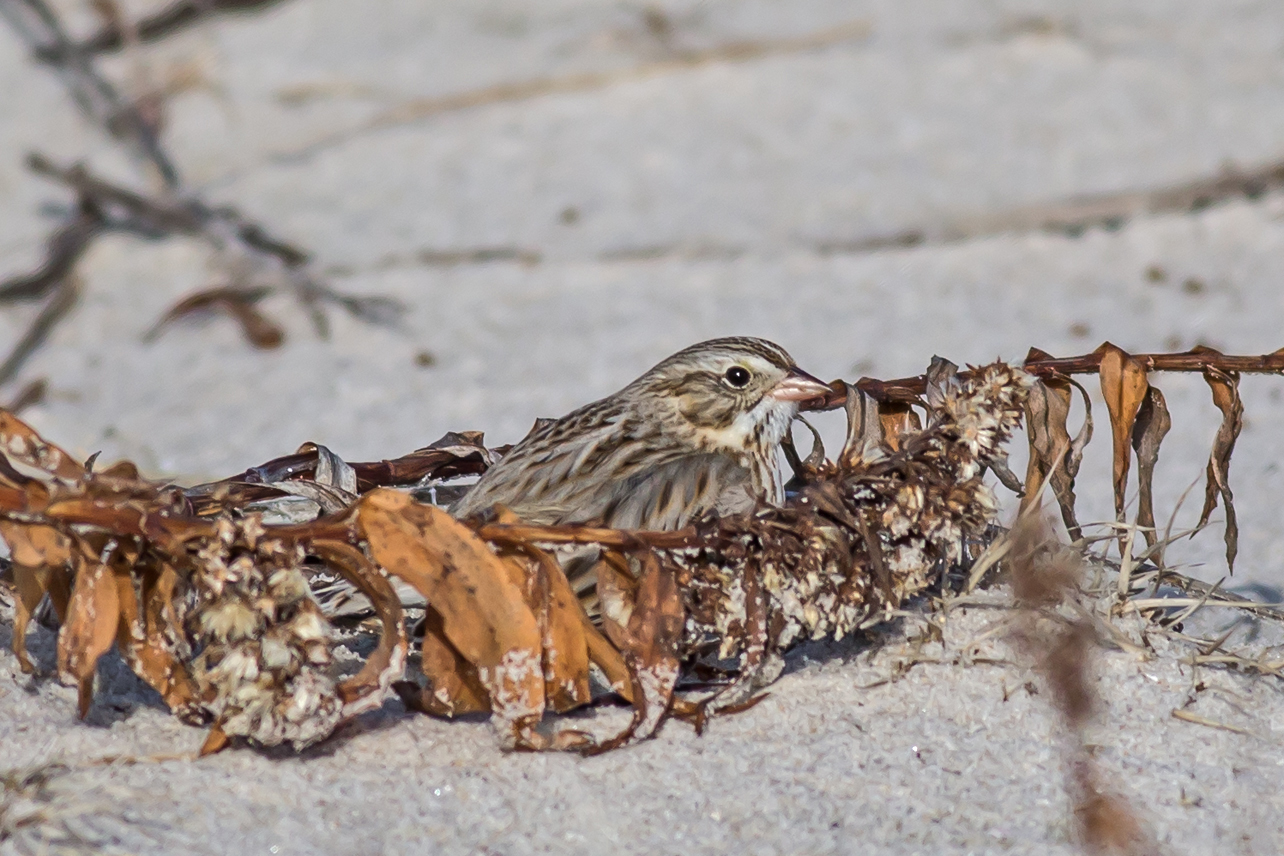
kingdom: Animalia
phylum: Chordata
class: Aves
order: Passeriformes
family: Passerellidae
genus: Passerculus
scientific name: Passerculus sandwichensis
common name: Savannah sparrow
